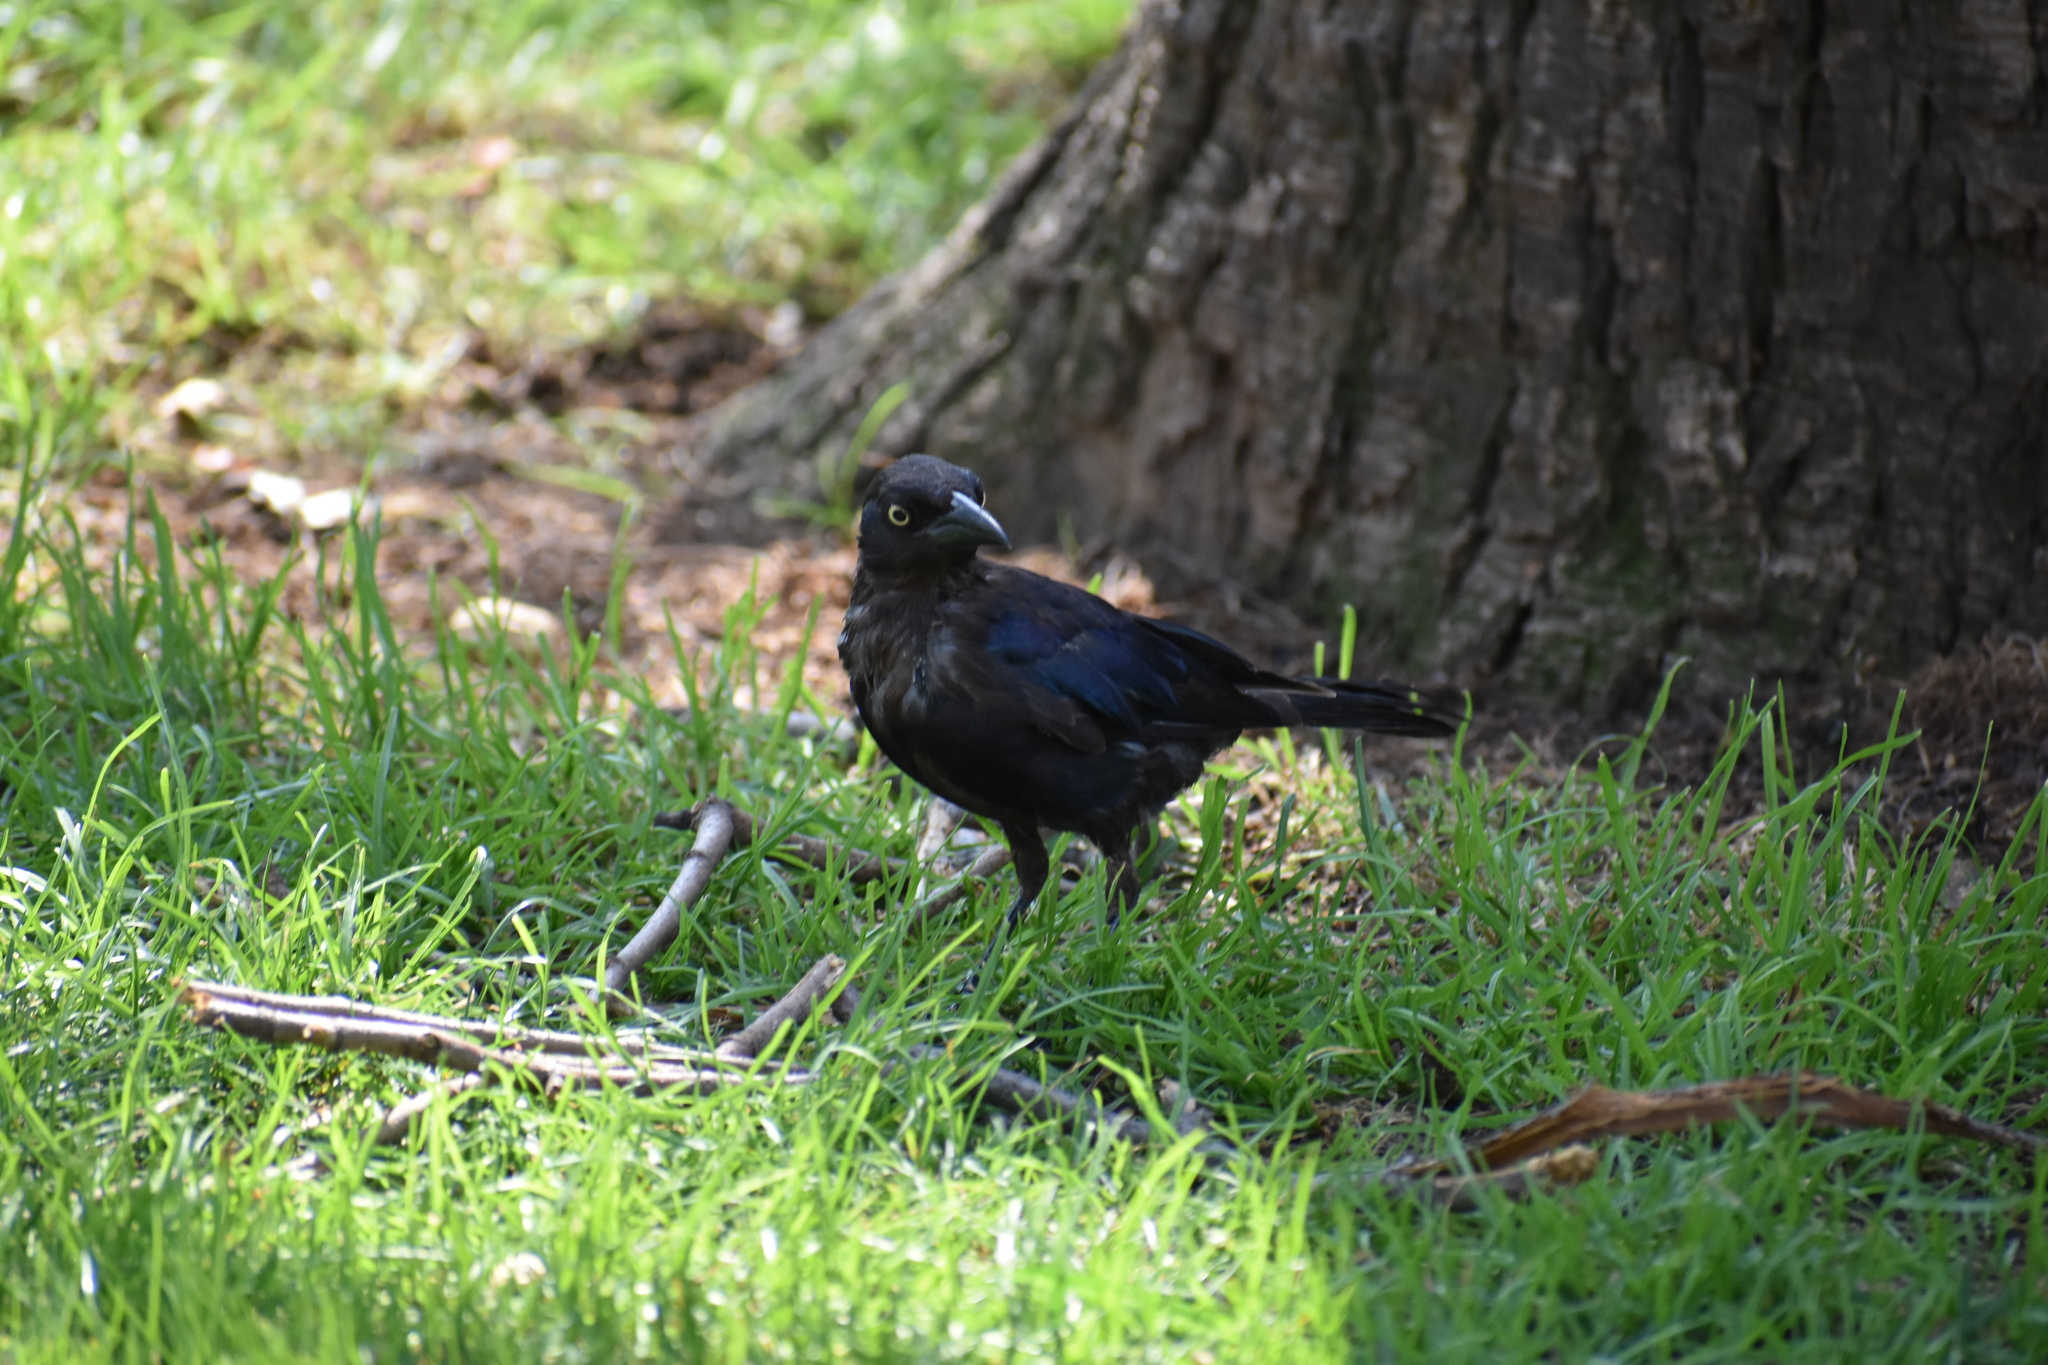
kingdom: Animalia
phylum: Chordata
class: Aves
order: Passeriformes
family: Icteridae
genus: Quiscalus
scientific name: Quiscalus quiscula
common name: Common grackle
